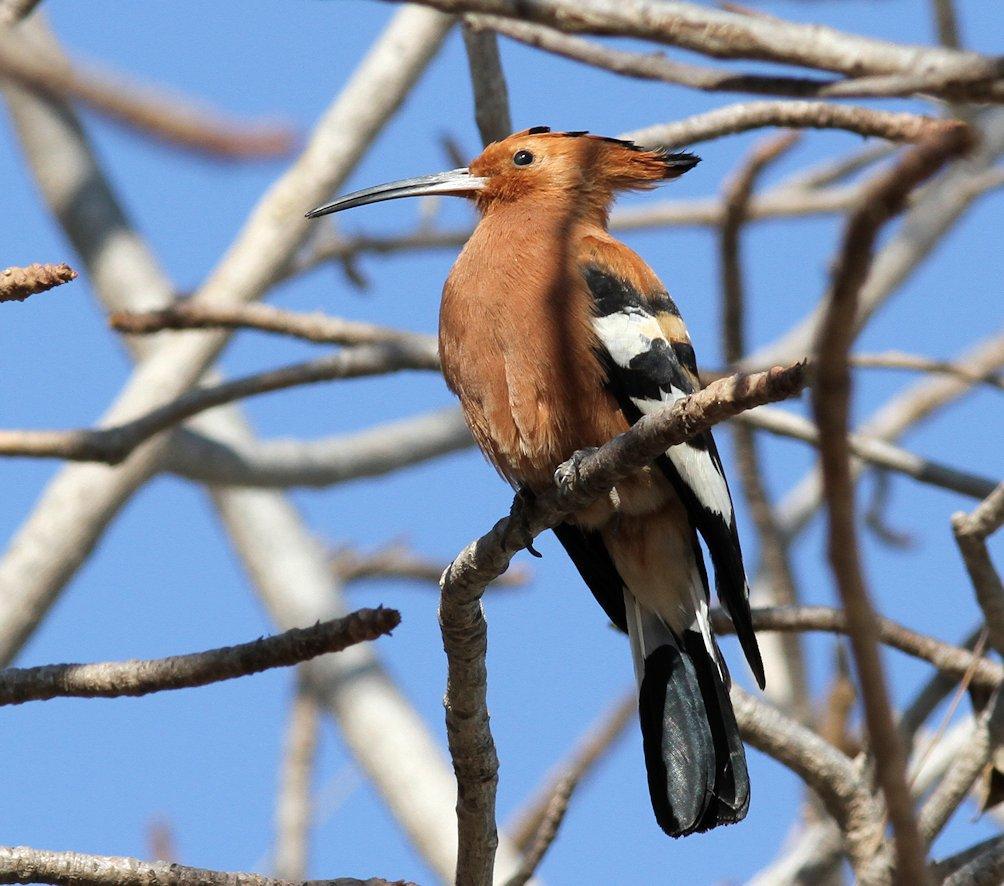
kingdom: Animalia
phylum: Chordata
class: Aves
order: Bucerotiformes
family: Upupidae
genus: Upupa
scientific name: Upupa africana
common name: African hoopoe
